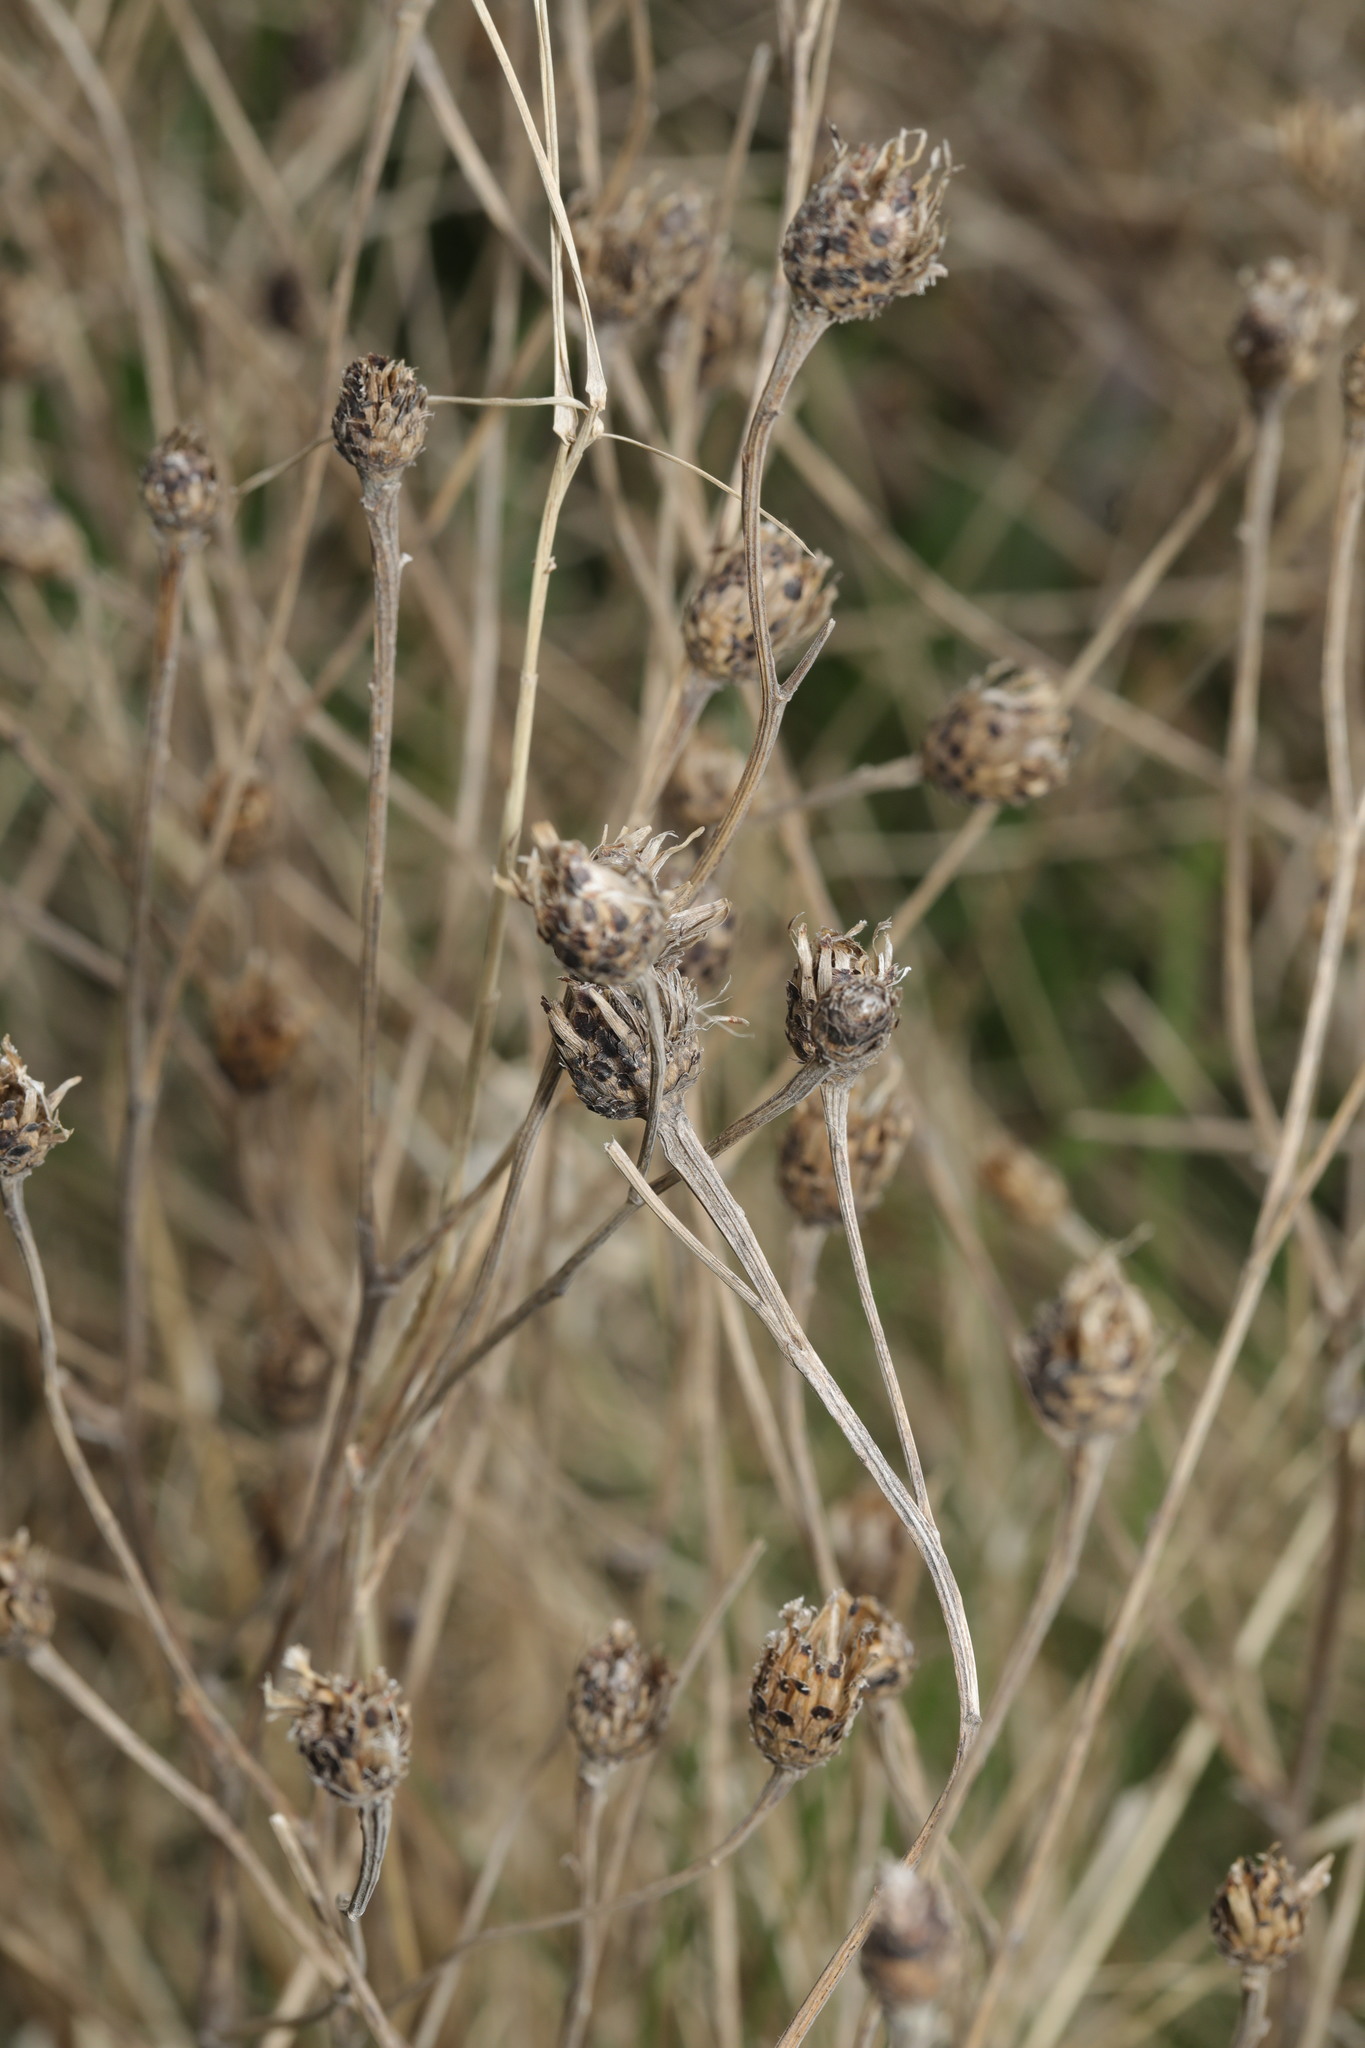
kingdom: Plantae
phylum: Tracheophyta
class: Magnoliopsida
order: Asterales
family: Asteraceae
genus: Centaurea
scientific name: Centaurea nigra
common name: Lesser knapweed
